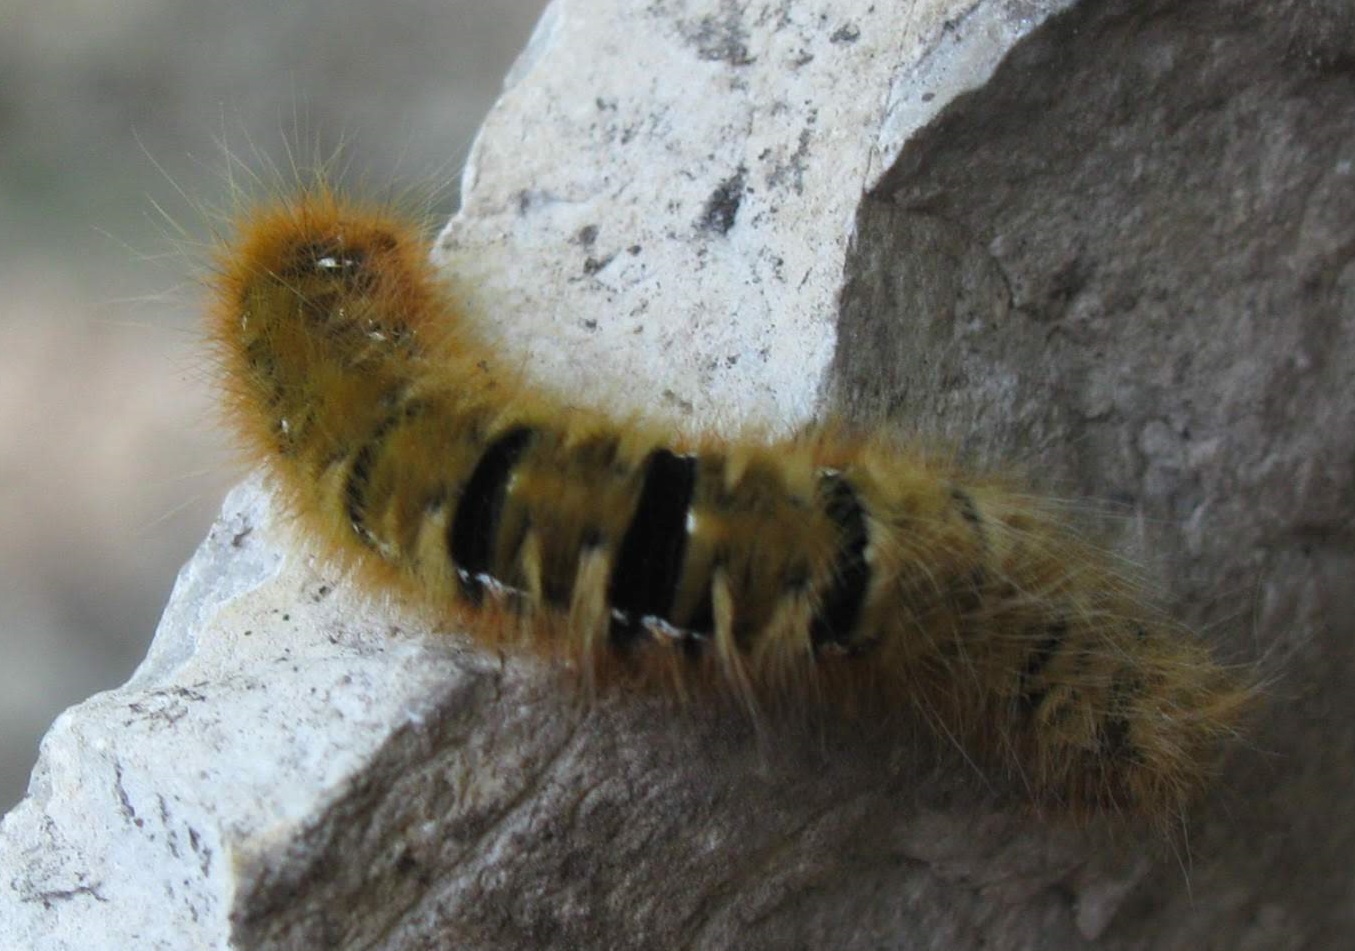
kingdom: Animalia
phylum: Arthropoda
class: Insecta
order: Lepidoptera
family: Lasiocampidae
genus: Lasiocampa
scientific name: Lasiocampa quercus
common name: Oak eggar
